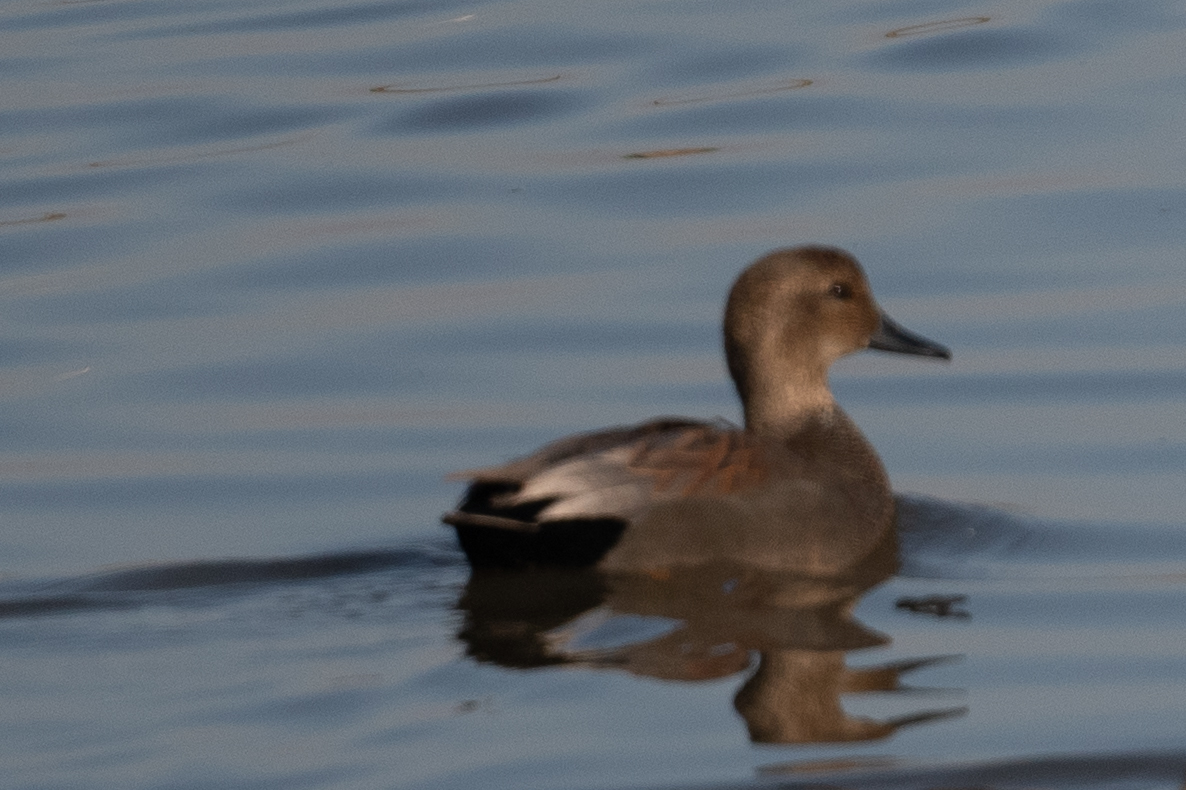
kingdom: Animalia
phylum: Chordata
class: Aves
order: Anseriformes
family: Anatidae
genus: Mareca
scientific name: Mareca strepera
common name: Gadwall
